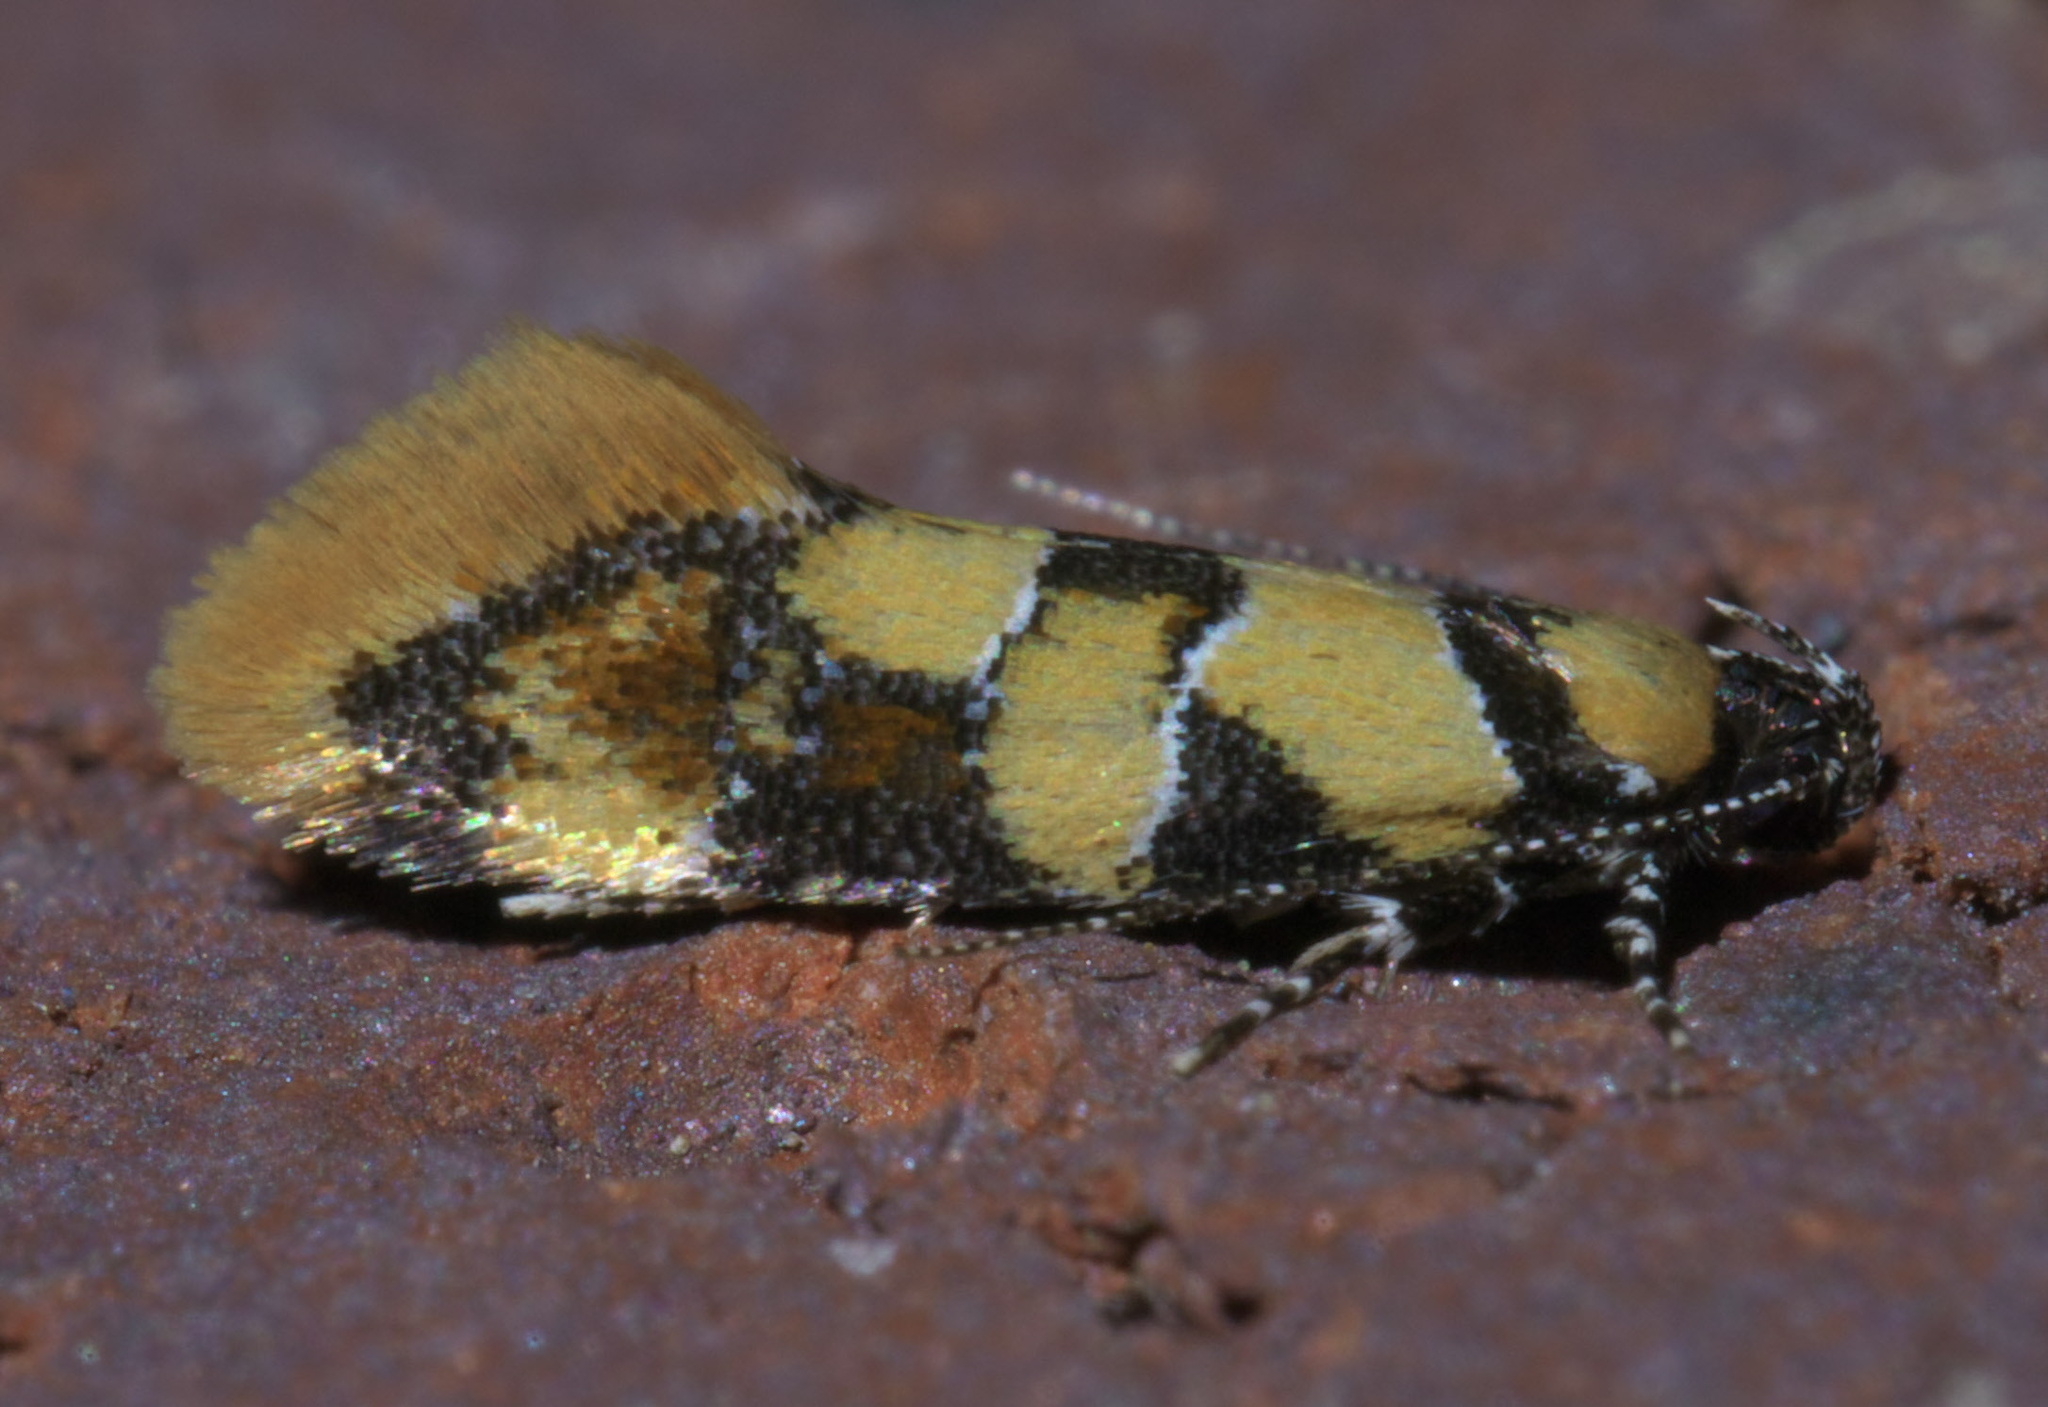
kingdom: Animalia
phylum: Arthropoda
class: Insecta
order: Lepidoptera
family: Oecophoridae
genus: Decantha
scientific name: Decantha borkhausenii
